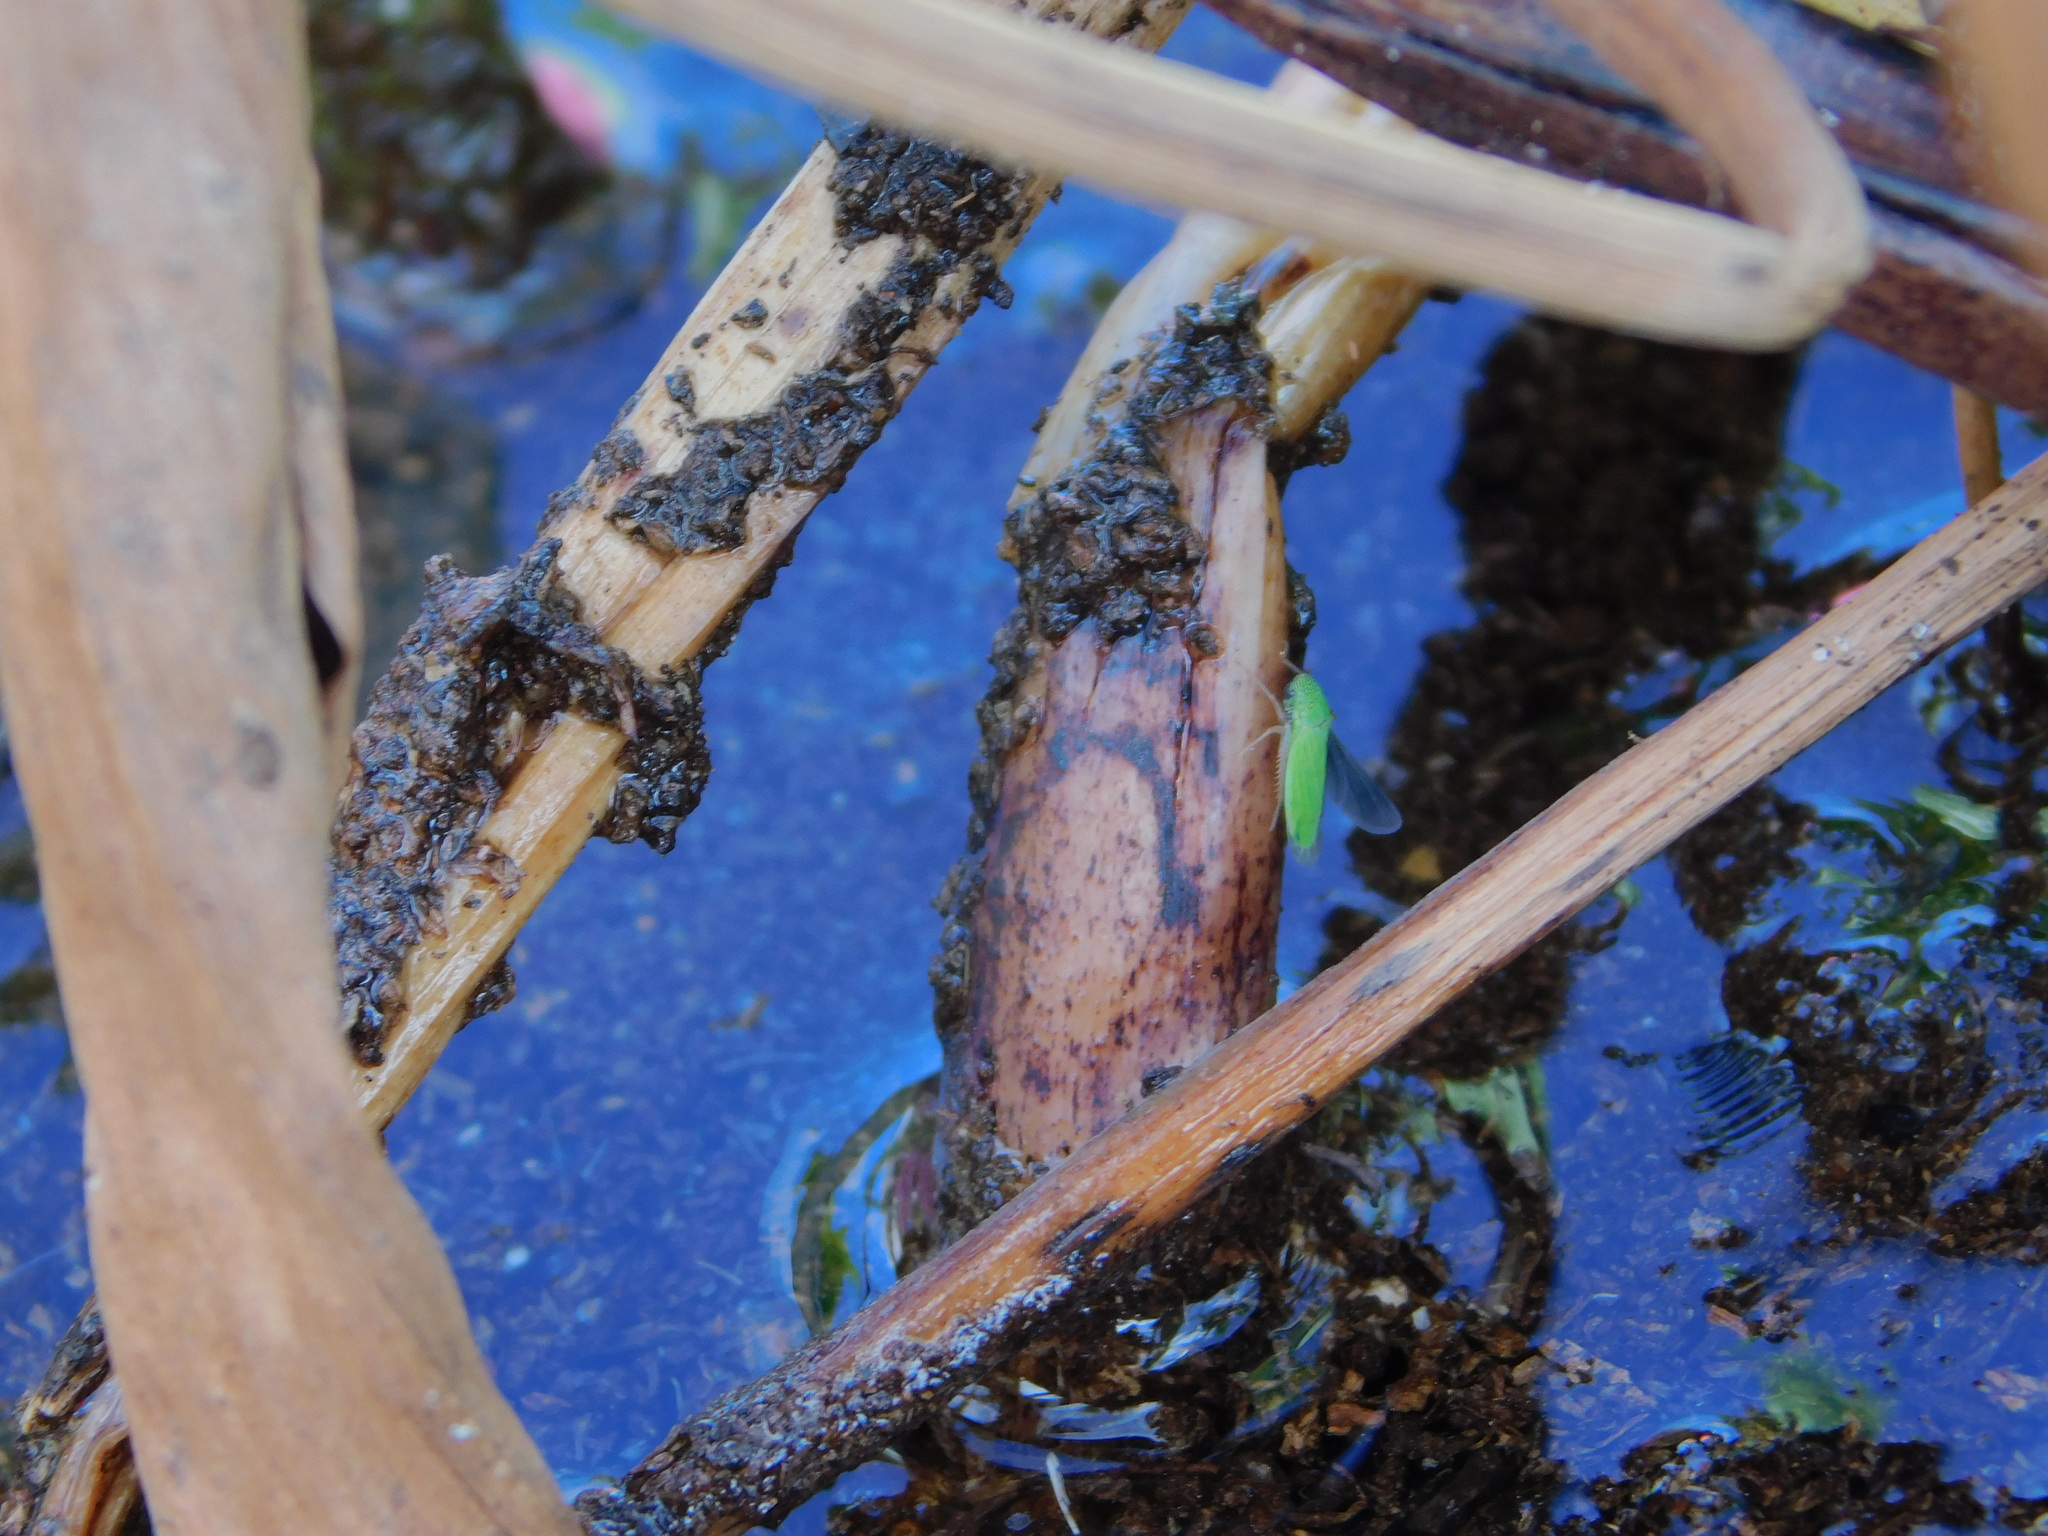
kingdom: Animalia
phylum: Arthropoda
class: Insecta
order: Hemiptera
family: Cicadellidae
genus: Hortensia
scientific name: Hortensia similis
